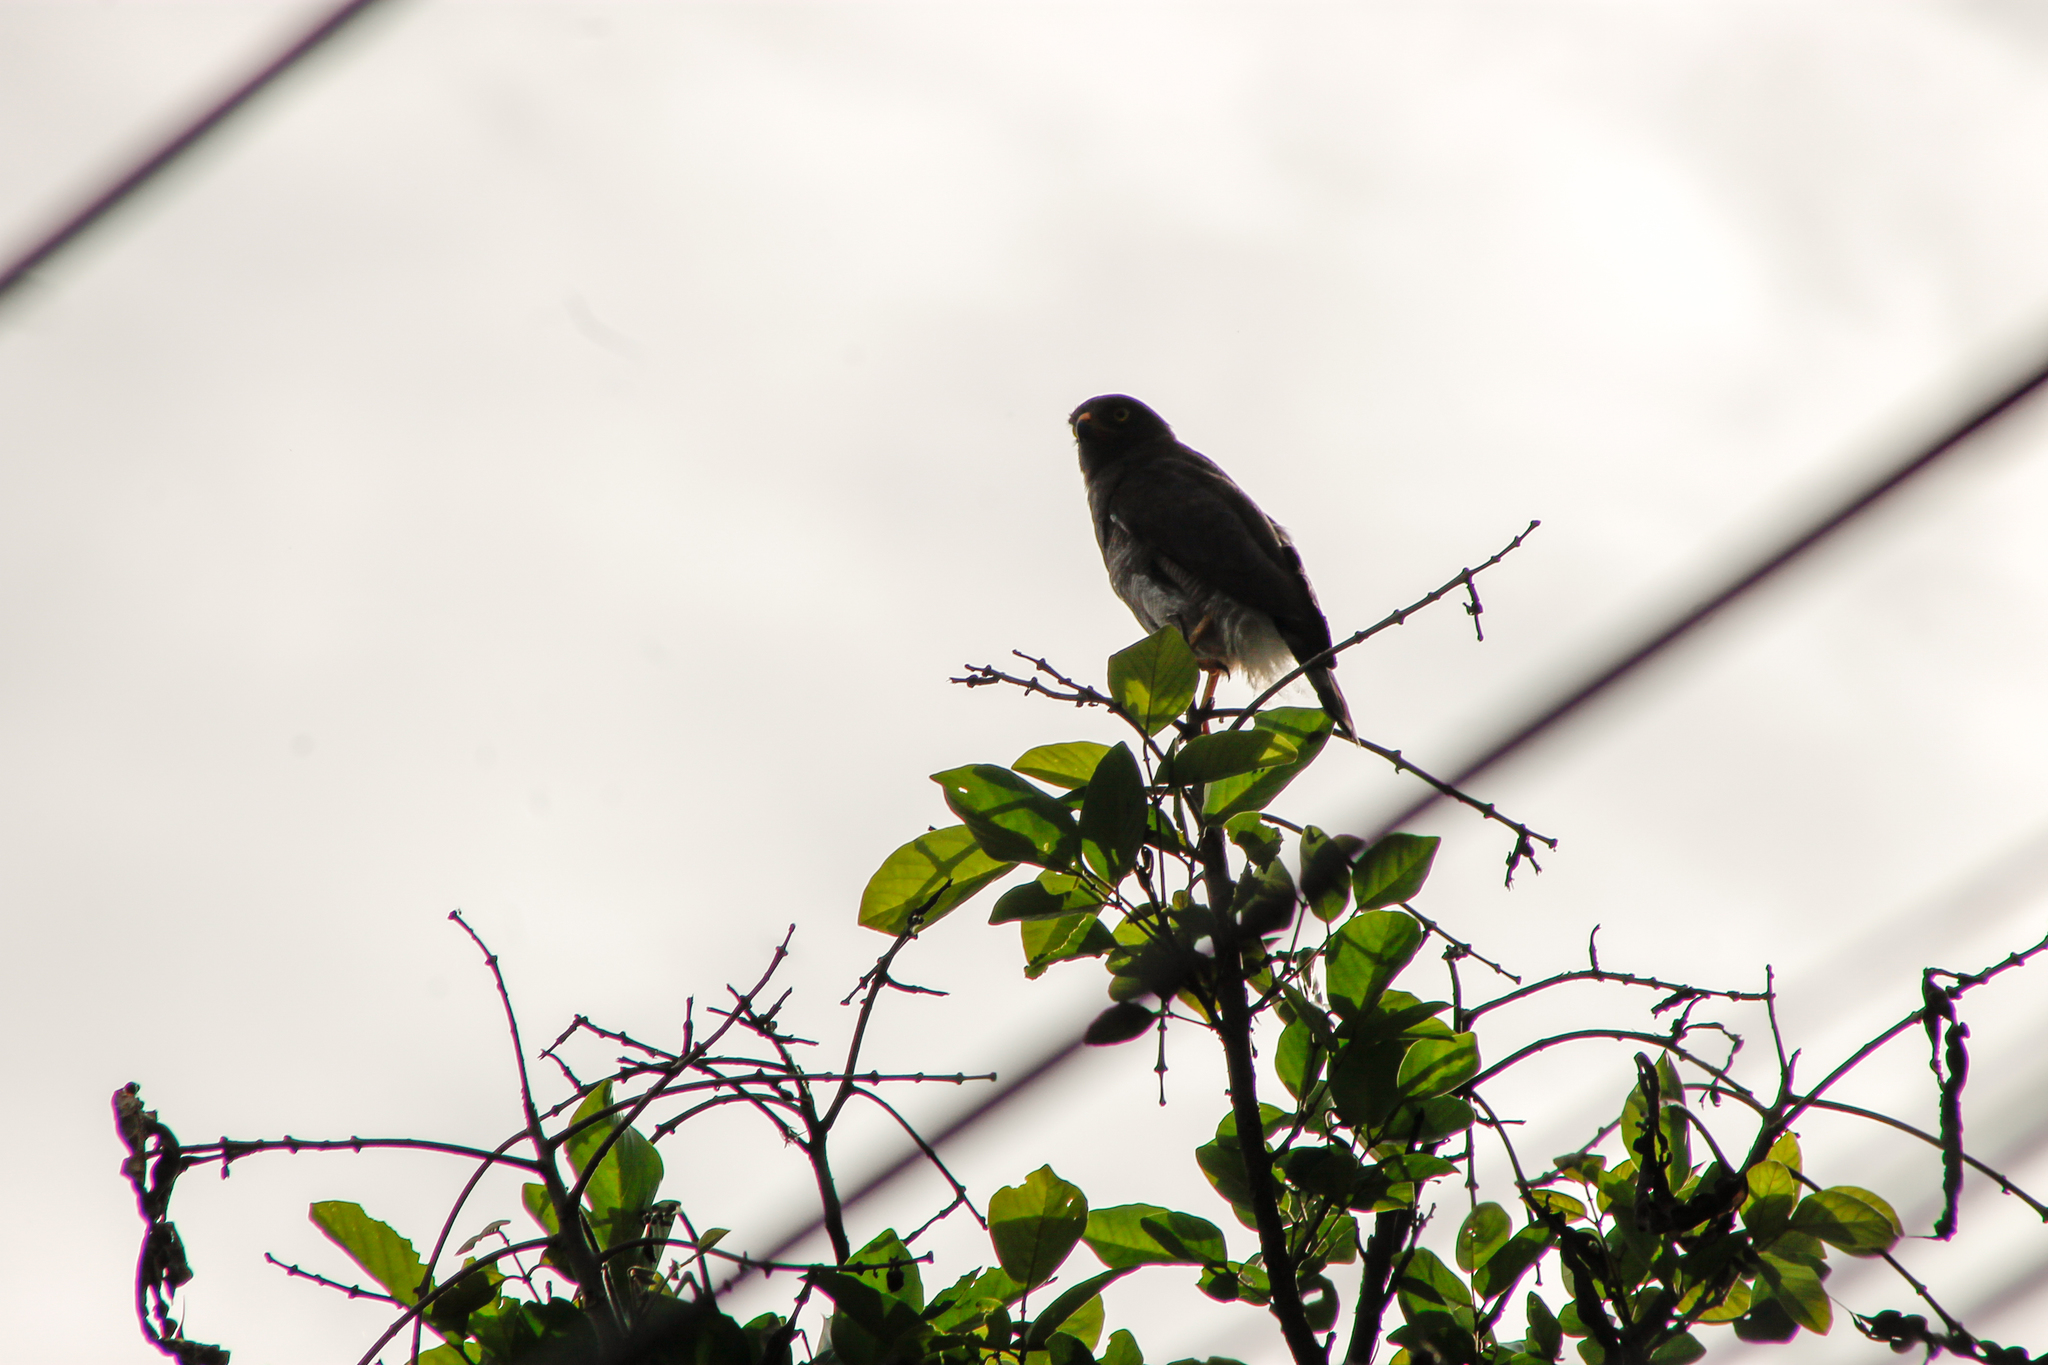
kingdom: Animalia
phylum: Chordata
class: Aves
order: Accipitriformes
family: Accipitridae
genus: Rupornis
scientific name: Rupornis magnirostris
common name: Roadside hawk
